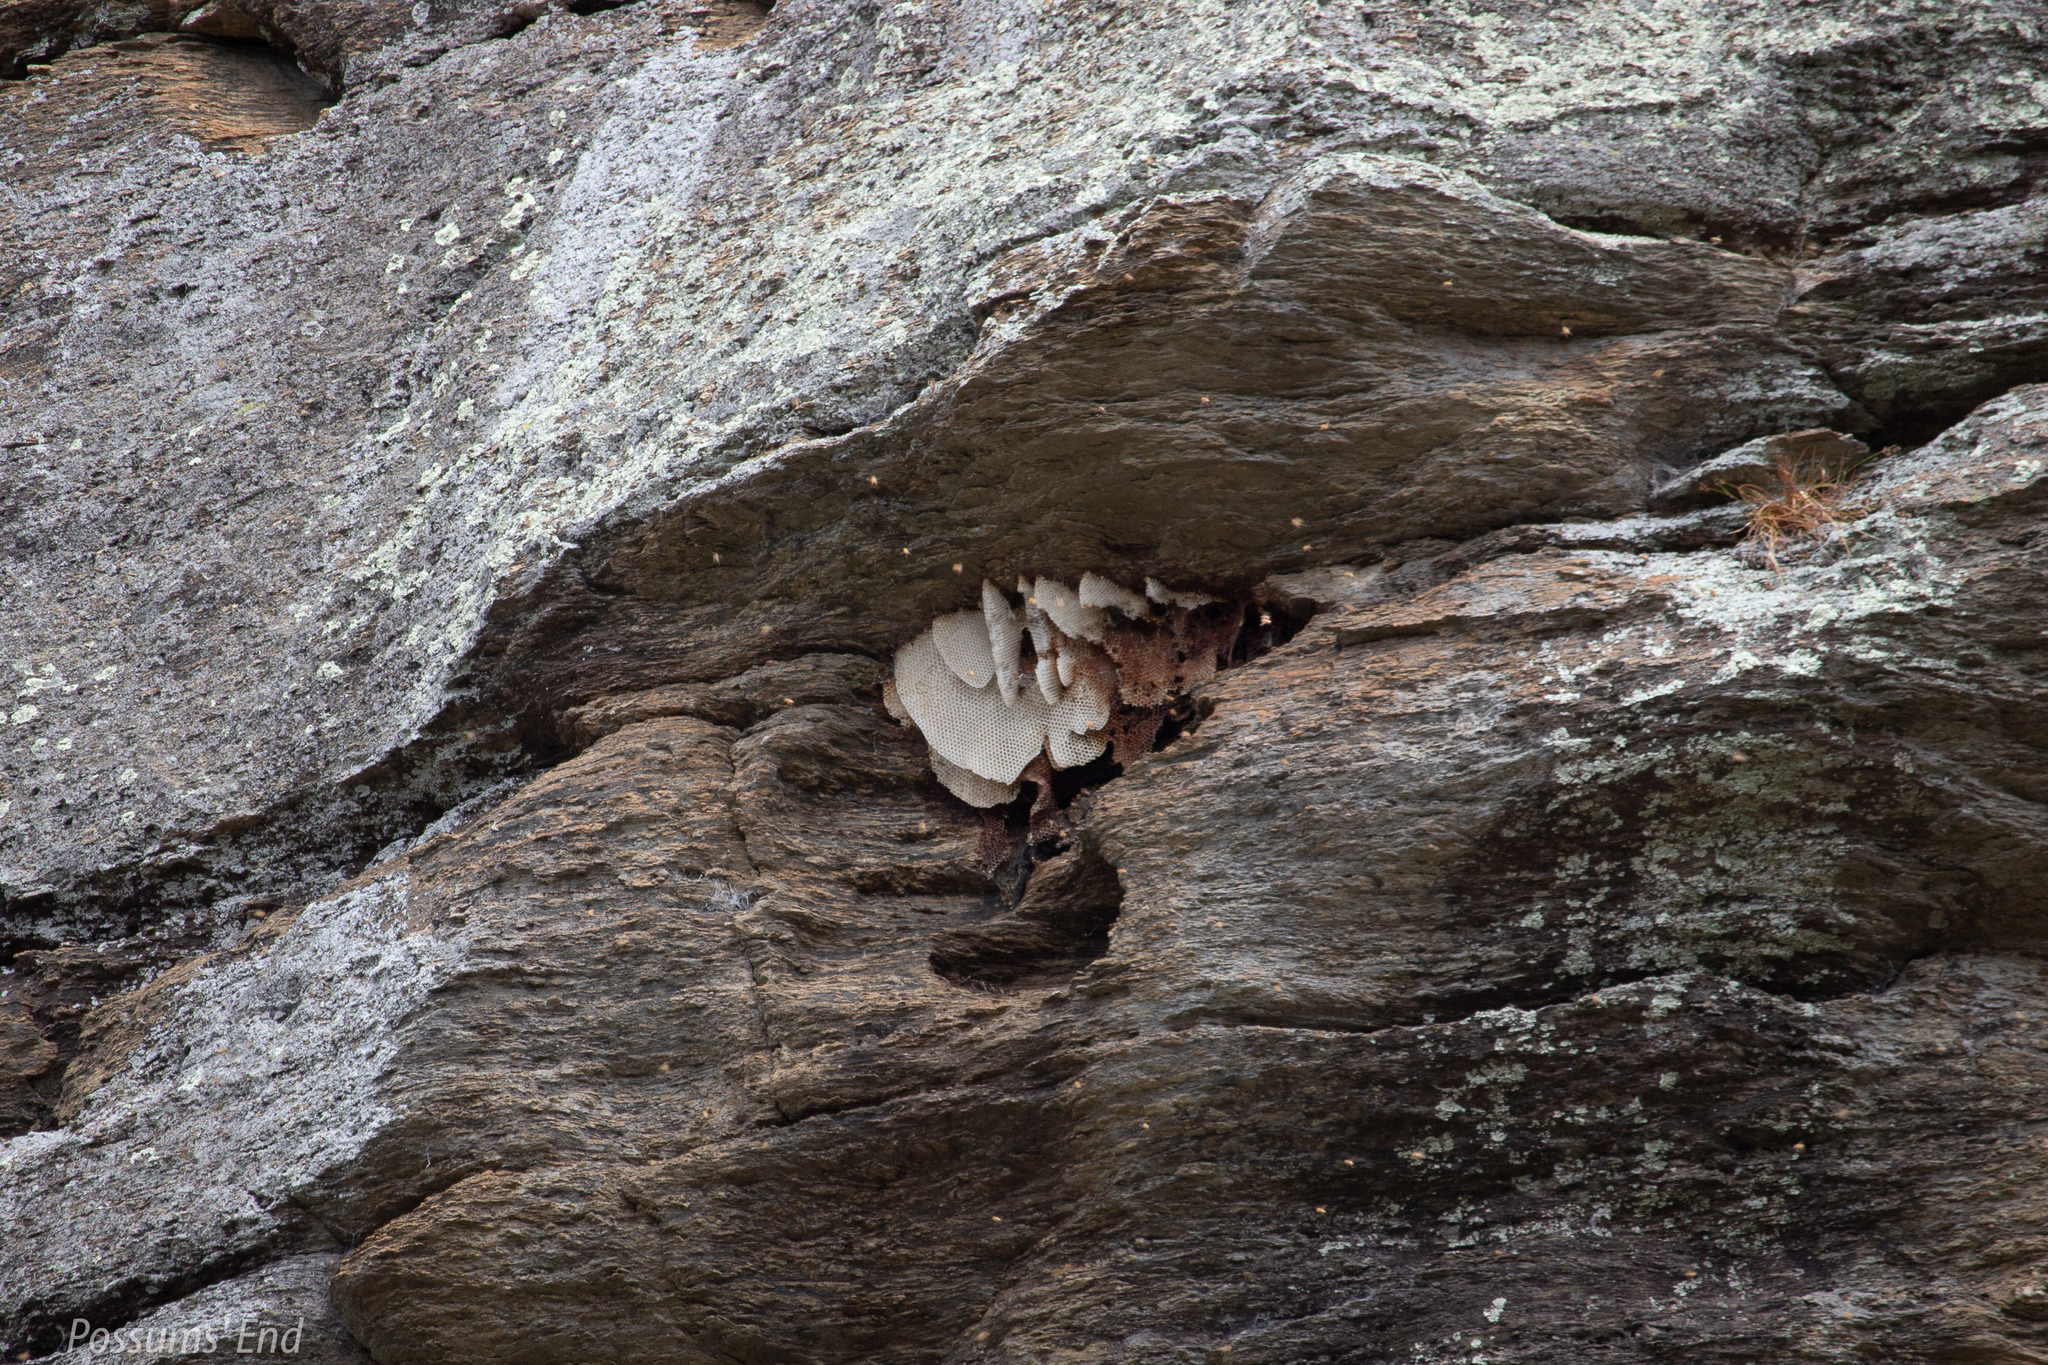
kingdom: Animalia
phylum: Arthropoda
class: Insecta
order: Hymenoptera
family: Apidae
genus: Apis
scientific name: Apis mellifera
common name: Honey bee
